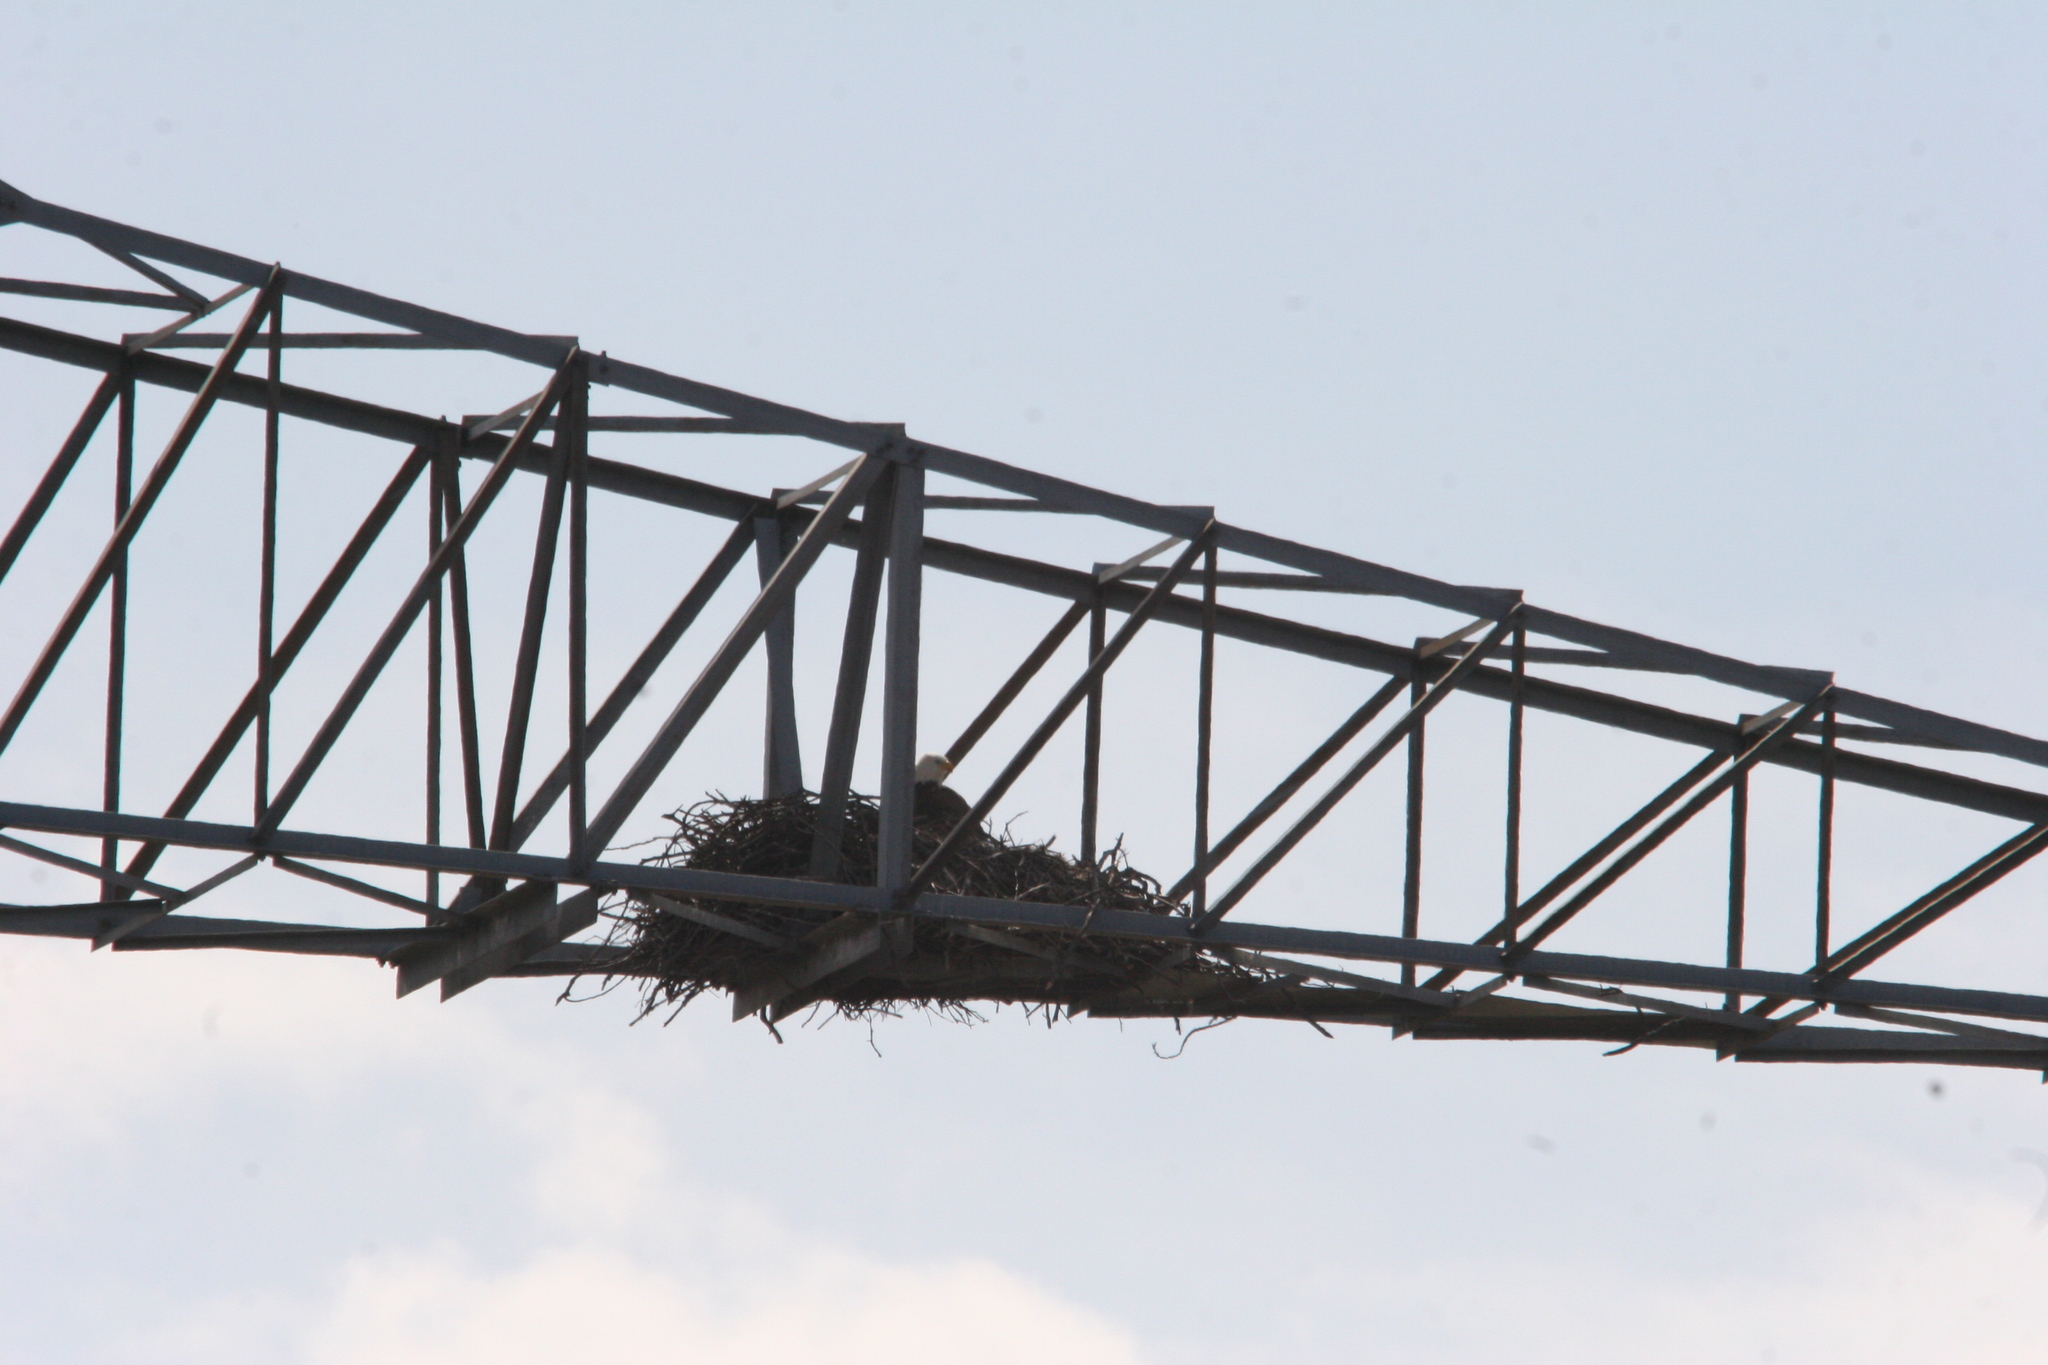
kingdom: Animalia
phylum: Chordata
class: Aves
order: Accipitriformes
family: Accipitridae
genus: Haliaeetus
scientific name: Haliaeetus leucocephalus
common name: Bald eagle
